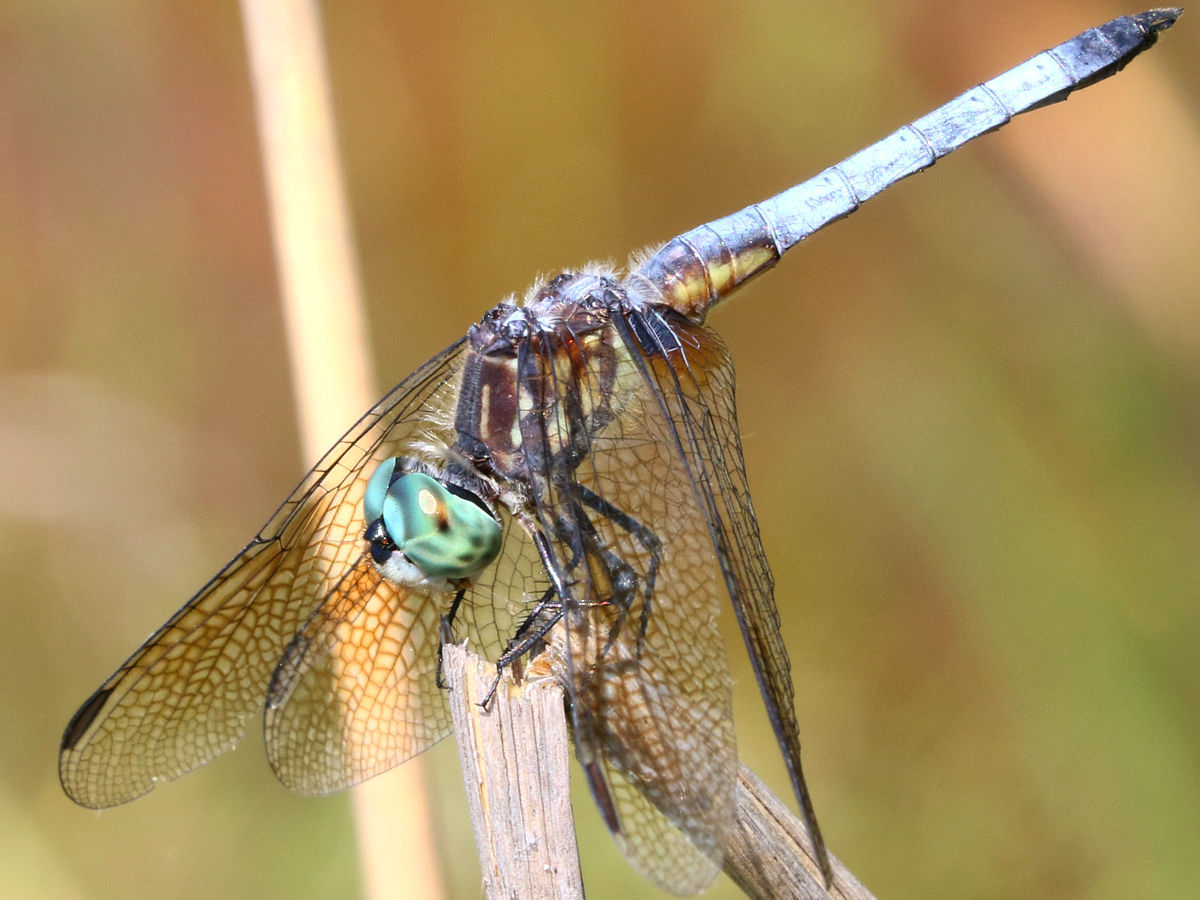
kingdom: Animalia
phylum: Arthropoda
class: Insecta
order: Odonata
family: Libellulidae
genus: Pachydiplax
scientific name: Pachydiplax longipennis
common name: Blue dasher
